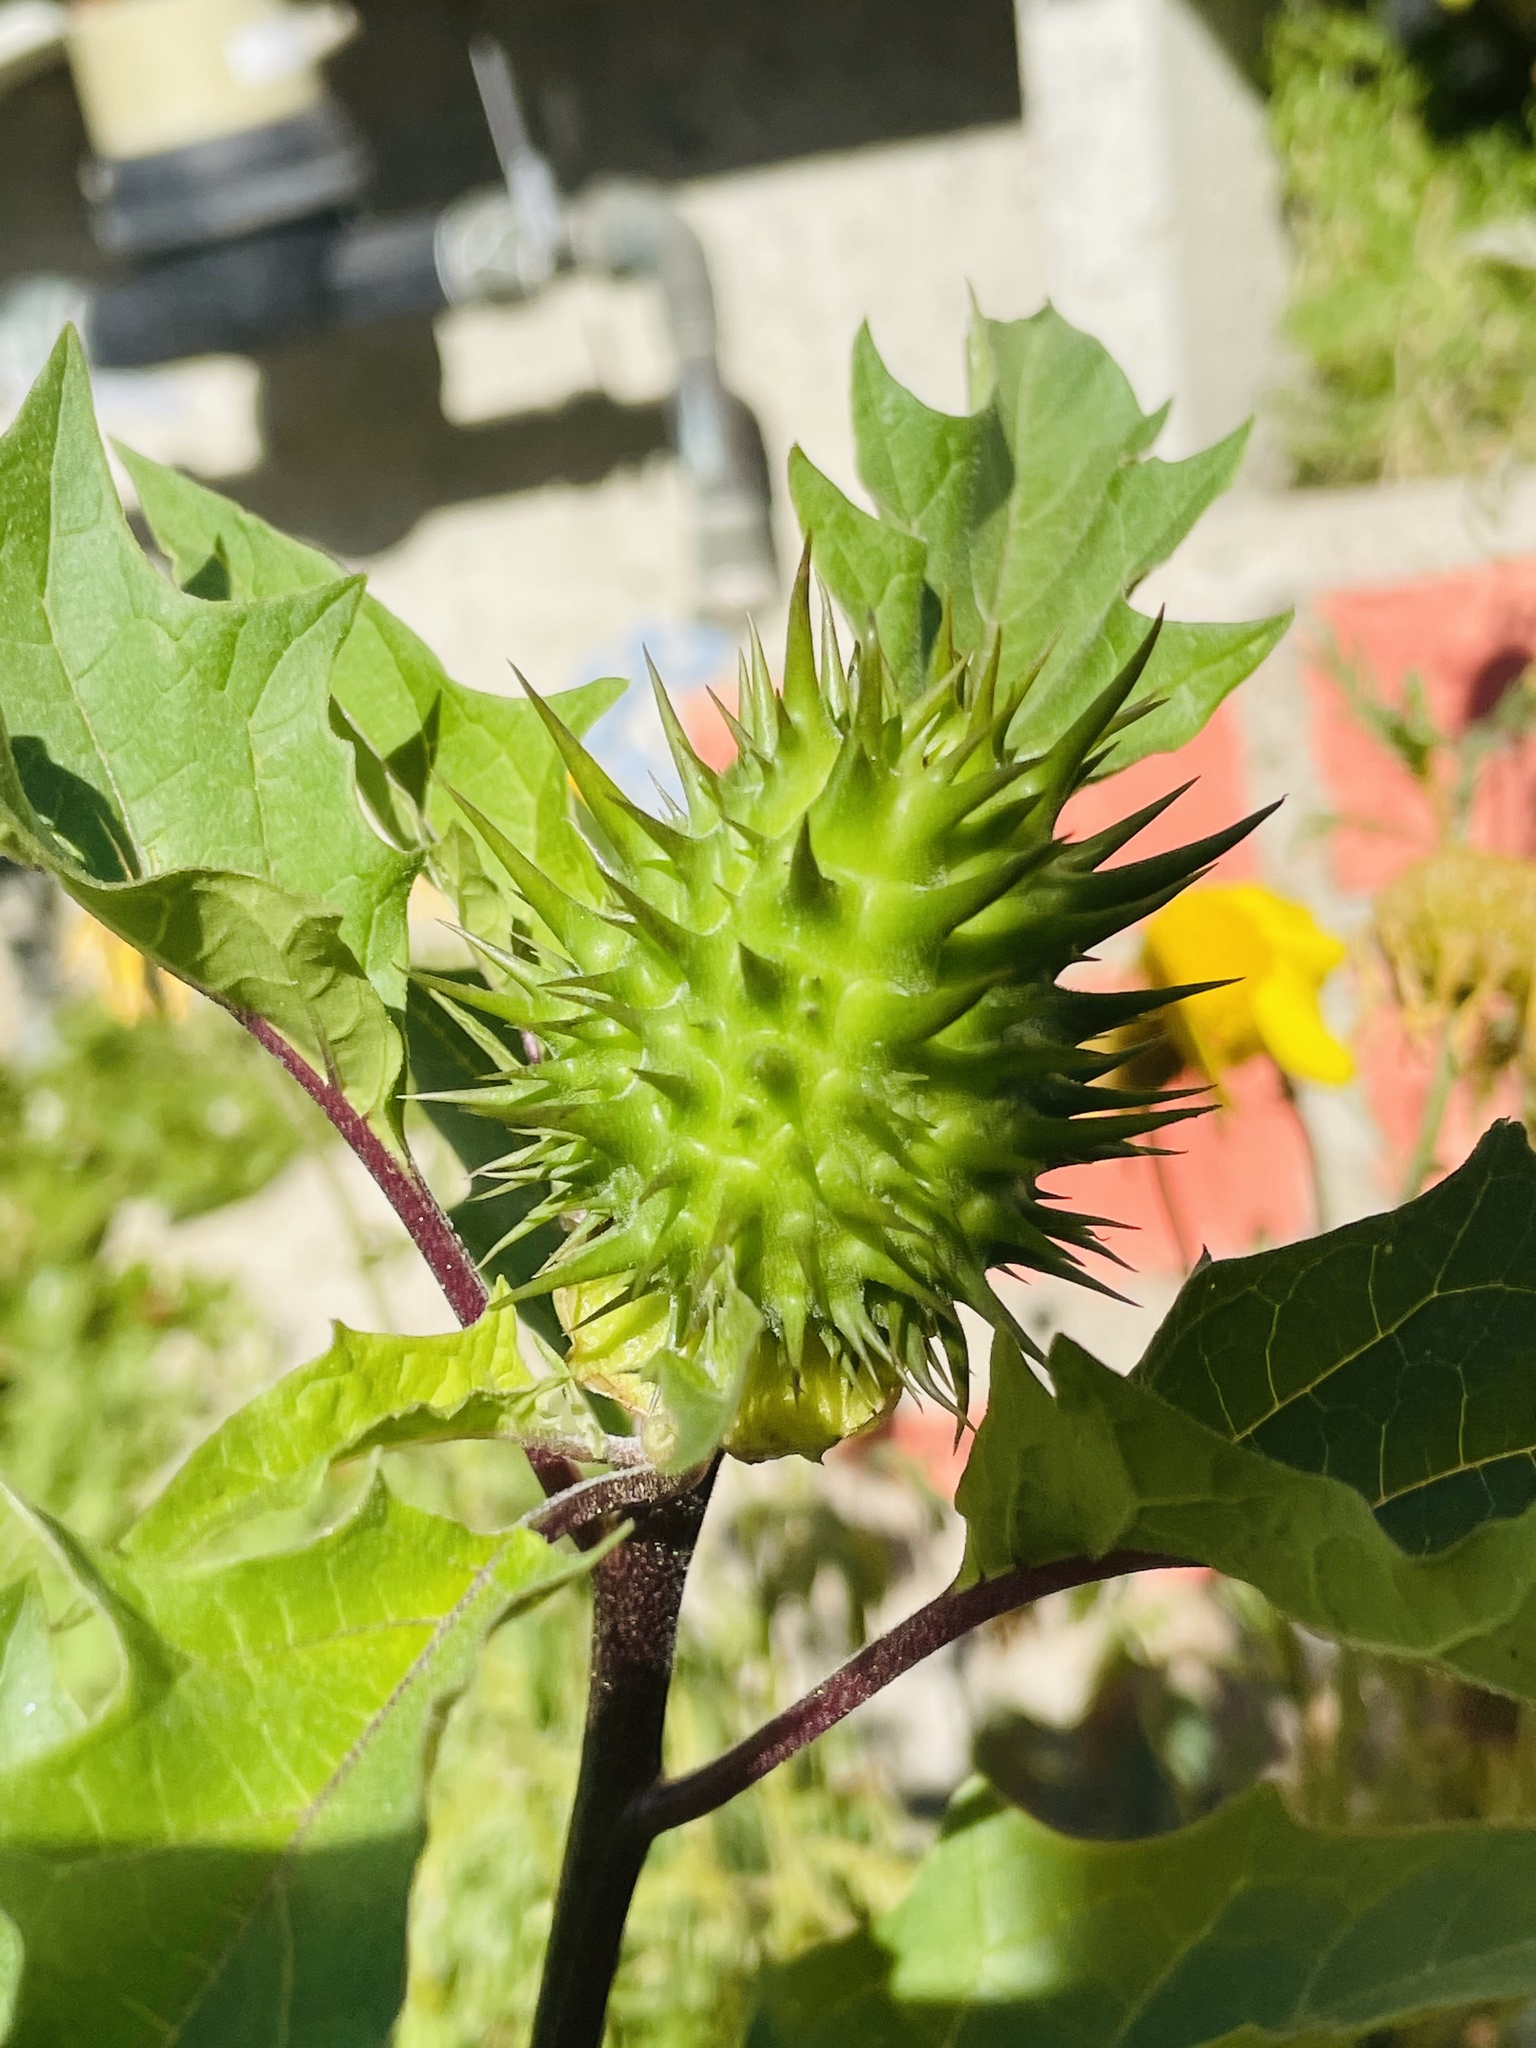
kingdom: Plantae
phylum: Tracheophyta
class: Magnoliopsida
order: Solanales
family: Solanaceae
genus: Datura
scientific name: Datura stramonium
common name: Thorn-apple
